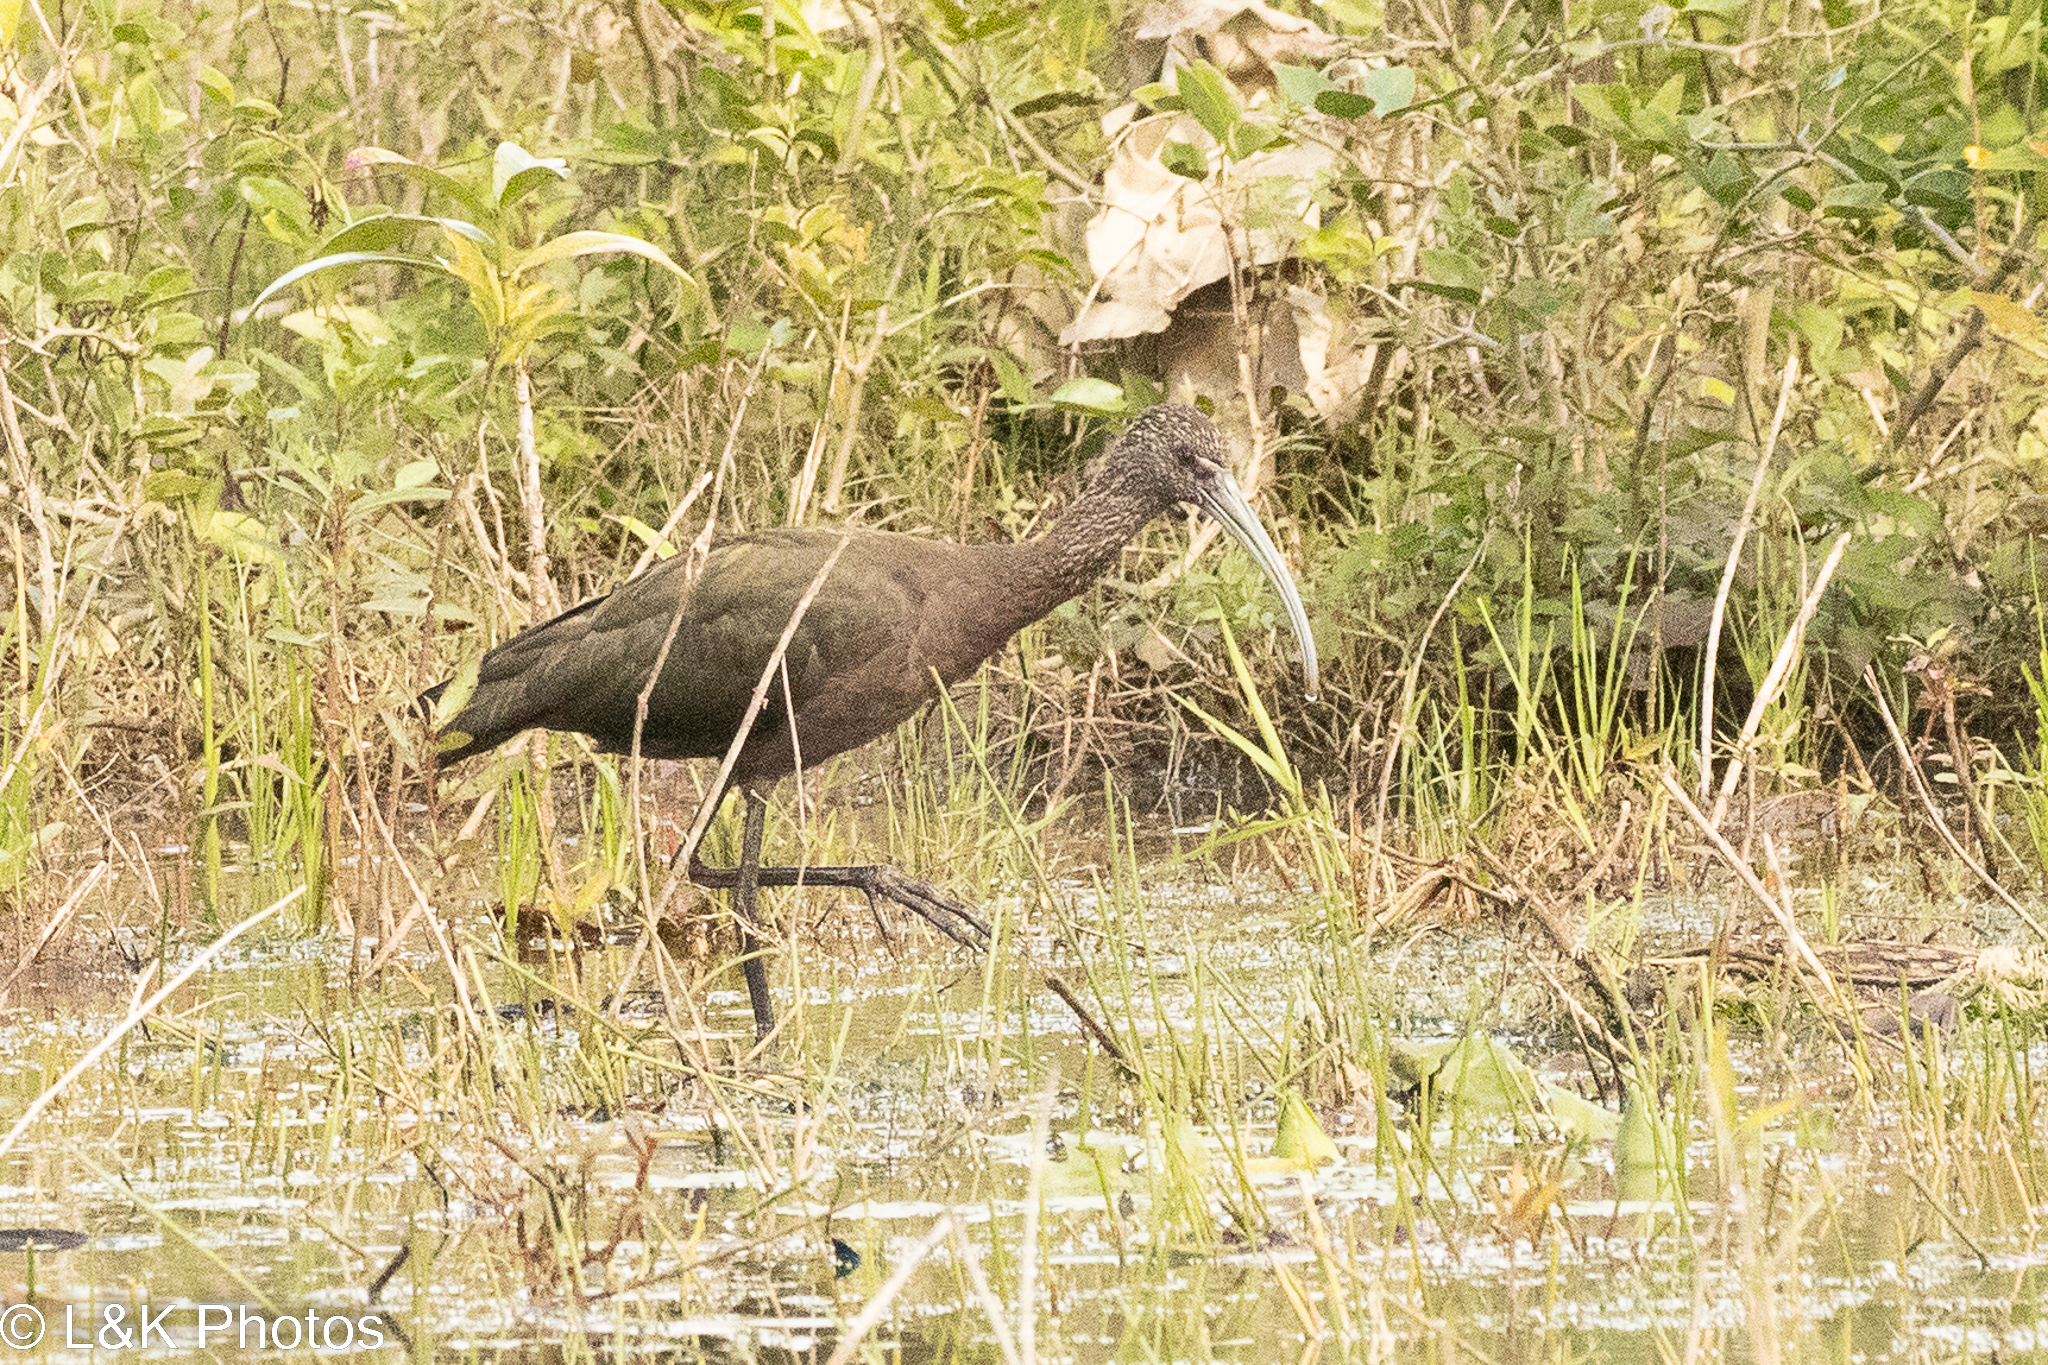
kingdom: Animalia
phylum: Chordata
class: Aves
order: Gruiformes
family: Aramidae
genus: Aramus
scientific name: Aramus guarauna
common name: Limpkin
